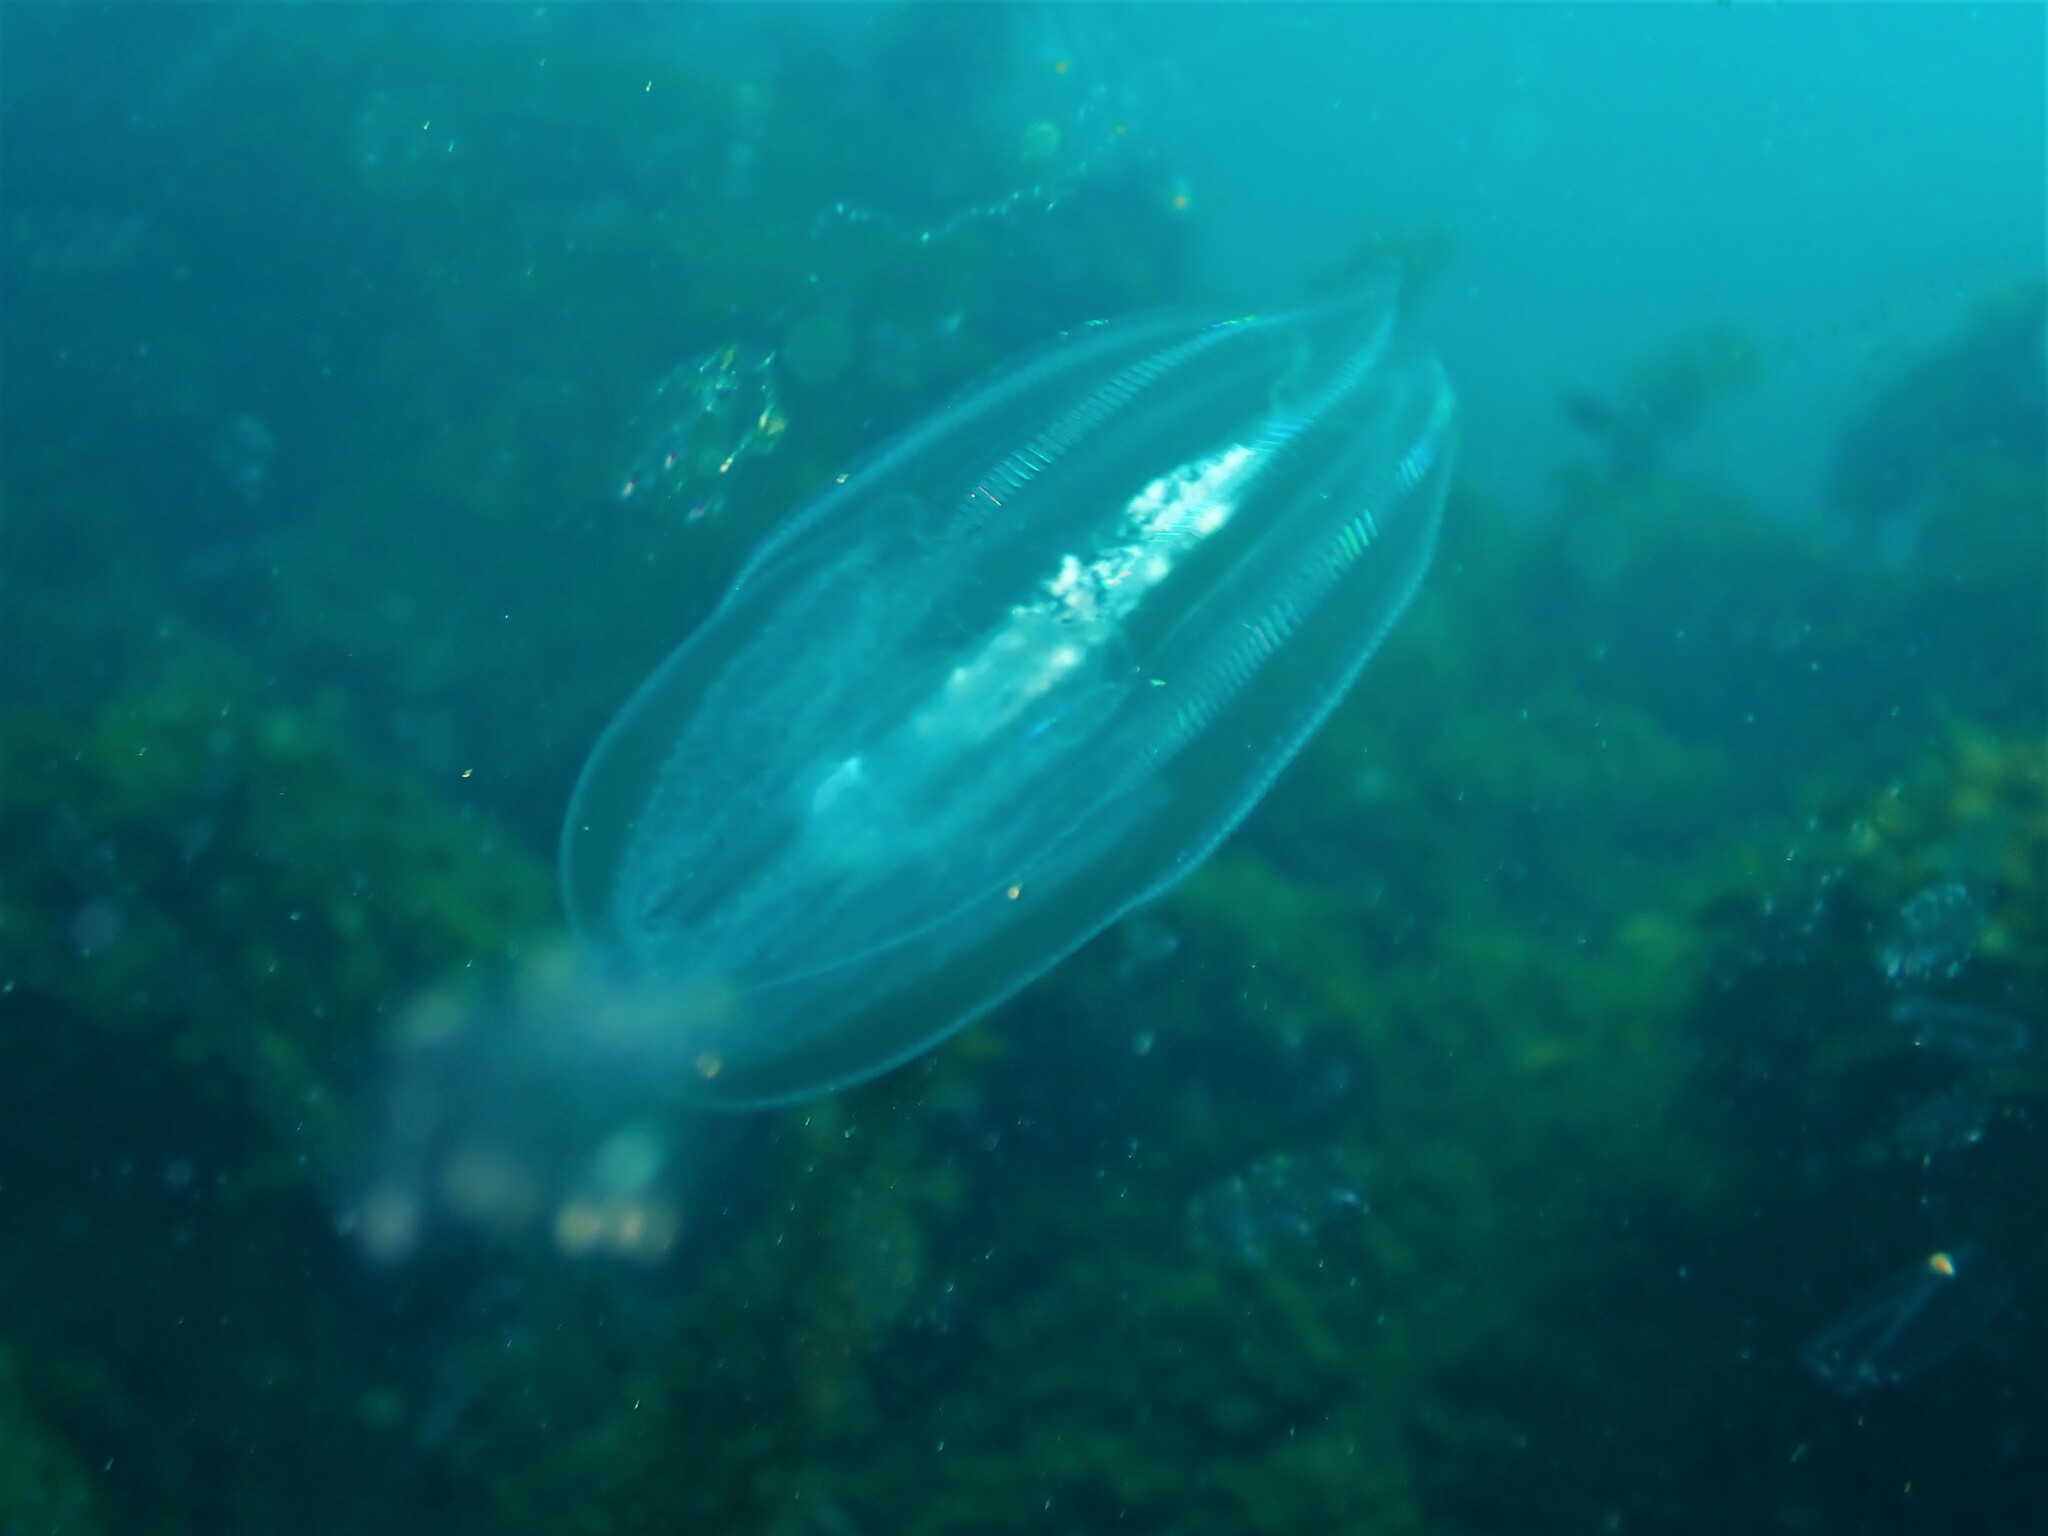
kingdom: Animalia
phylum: Ctenophora
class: Tentaculata
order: Lobata
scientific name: Lobata
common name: Lobata
